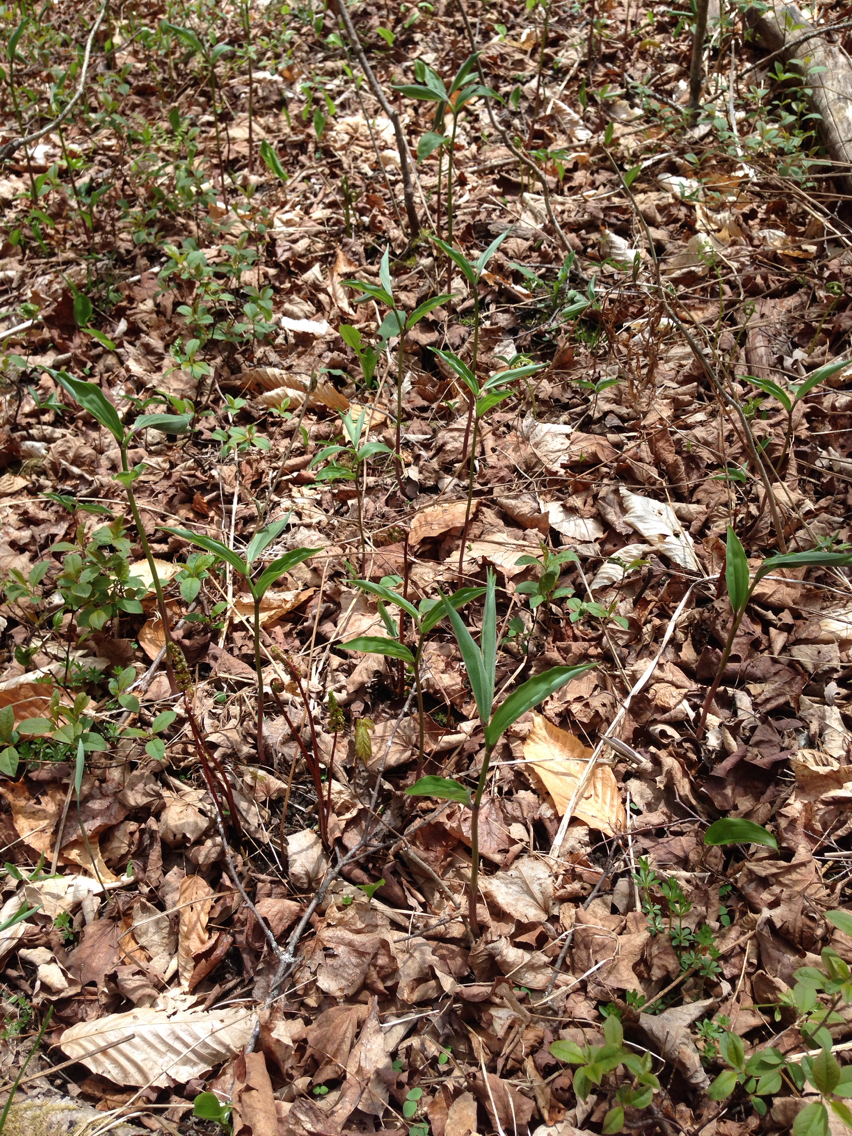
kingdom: Plantae
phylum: Tracheophyta
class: Liliopsida
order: Asparagales
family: Asparagaceae
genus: Maianthemum
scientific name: Maianthemum racemosum
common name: False spikenard
